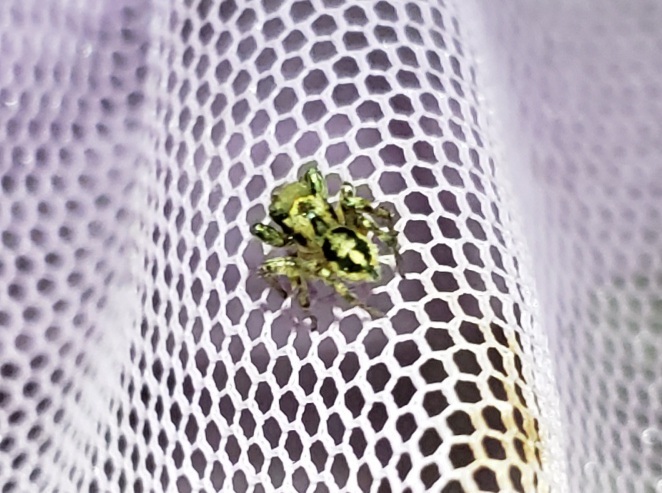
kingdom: Animalia
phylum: Arthropoda
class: Arachnida
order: Araneae
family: Salticidae
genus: Habronattus
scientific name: Habronattus notialis
